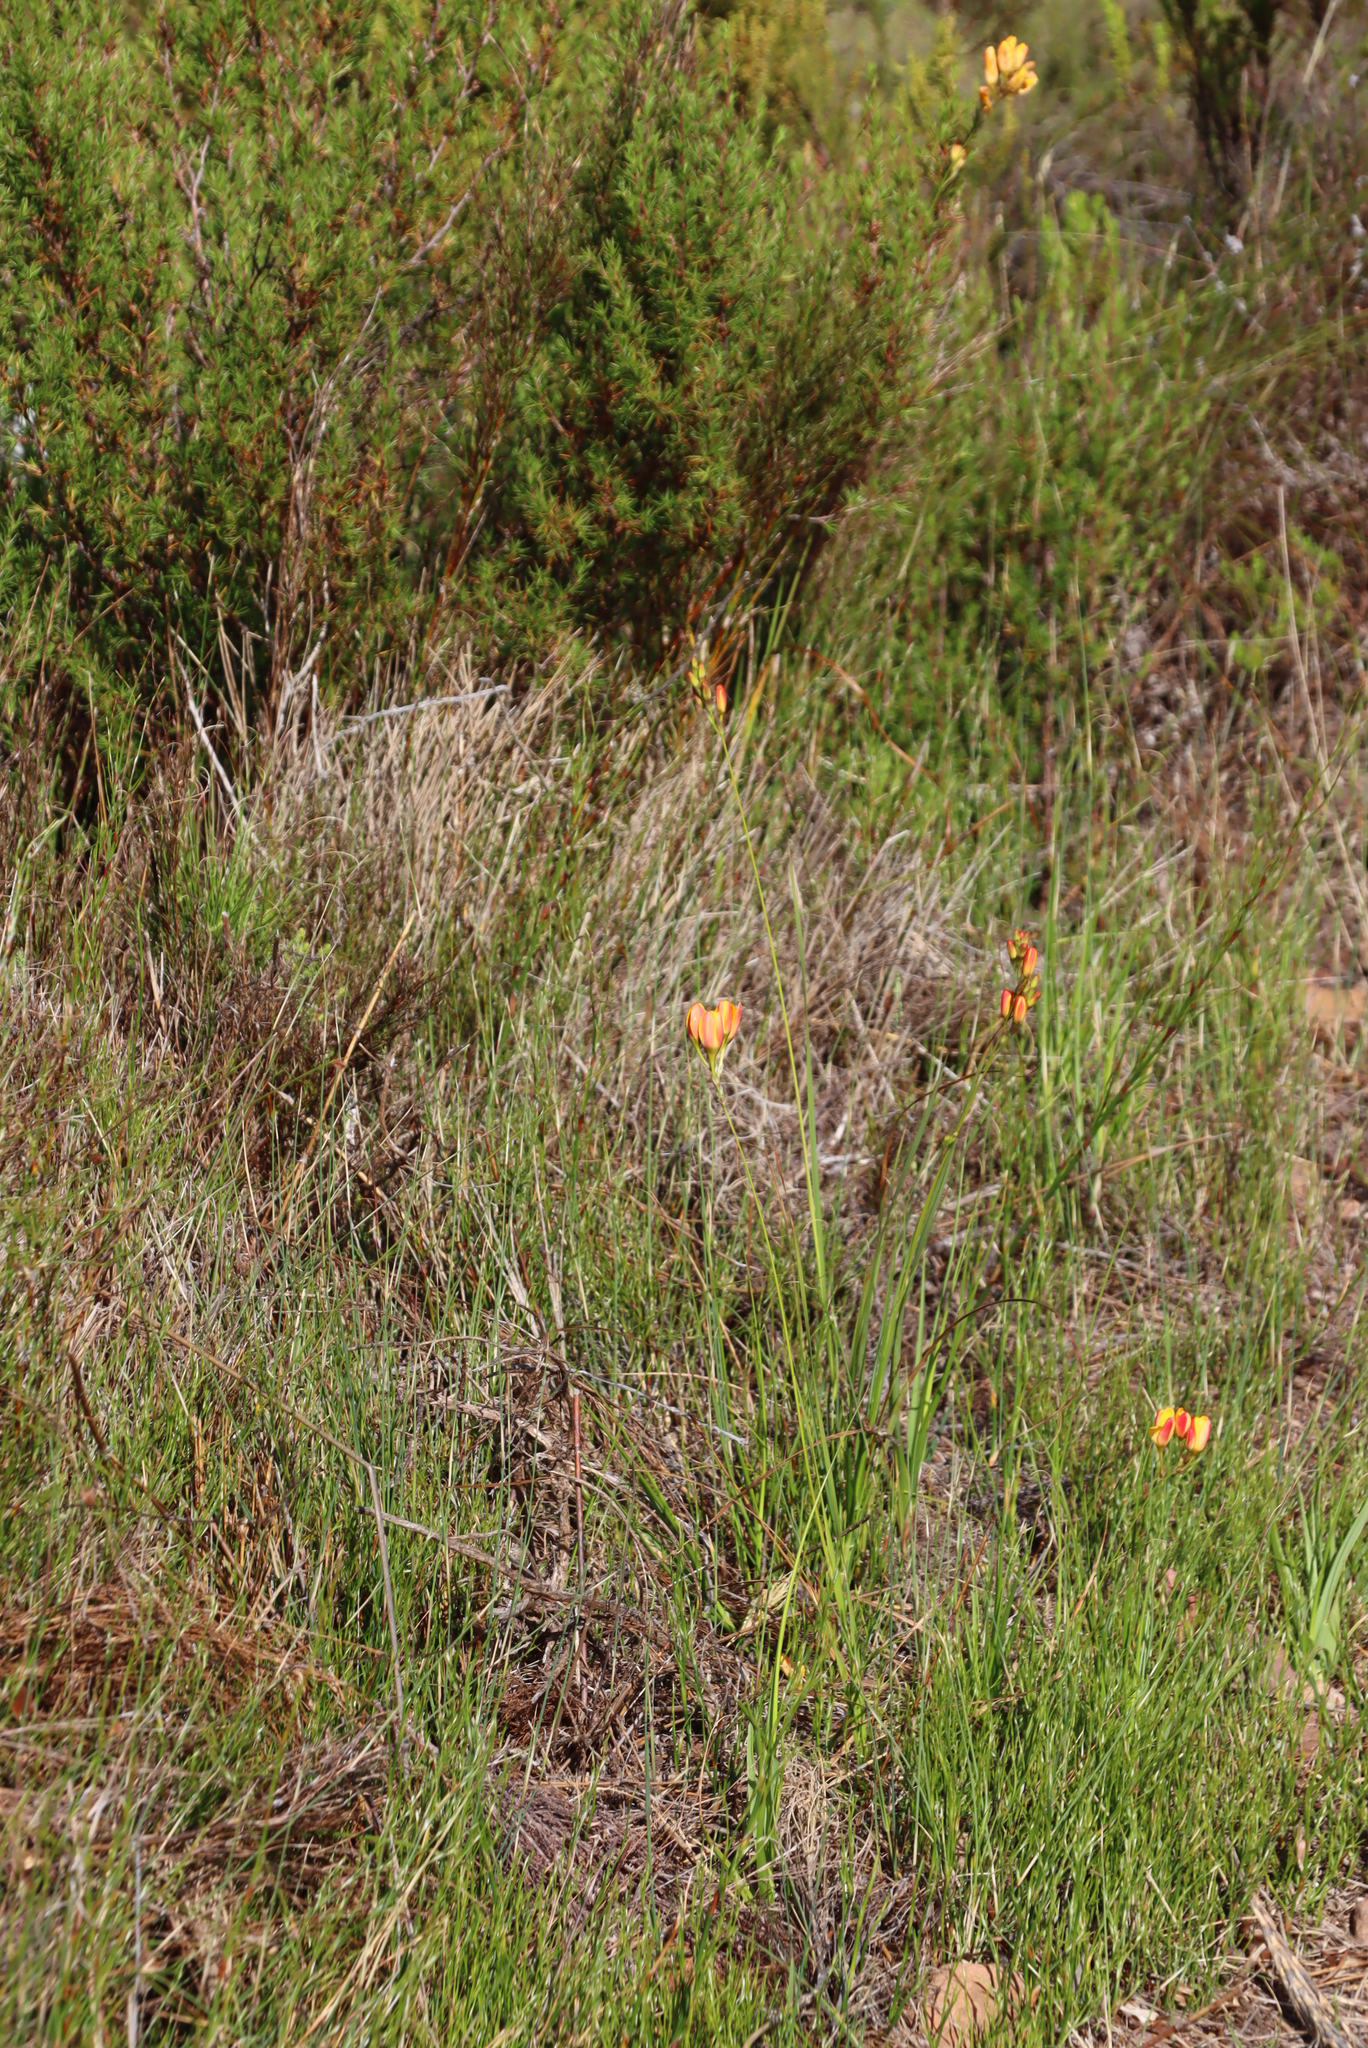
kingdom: Plantae
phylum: Tracheophyta
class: Liliopsida
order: Asparagales
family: Iridaceae
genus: Ixia
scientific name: Ixia dubia
